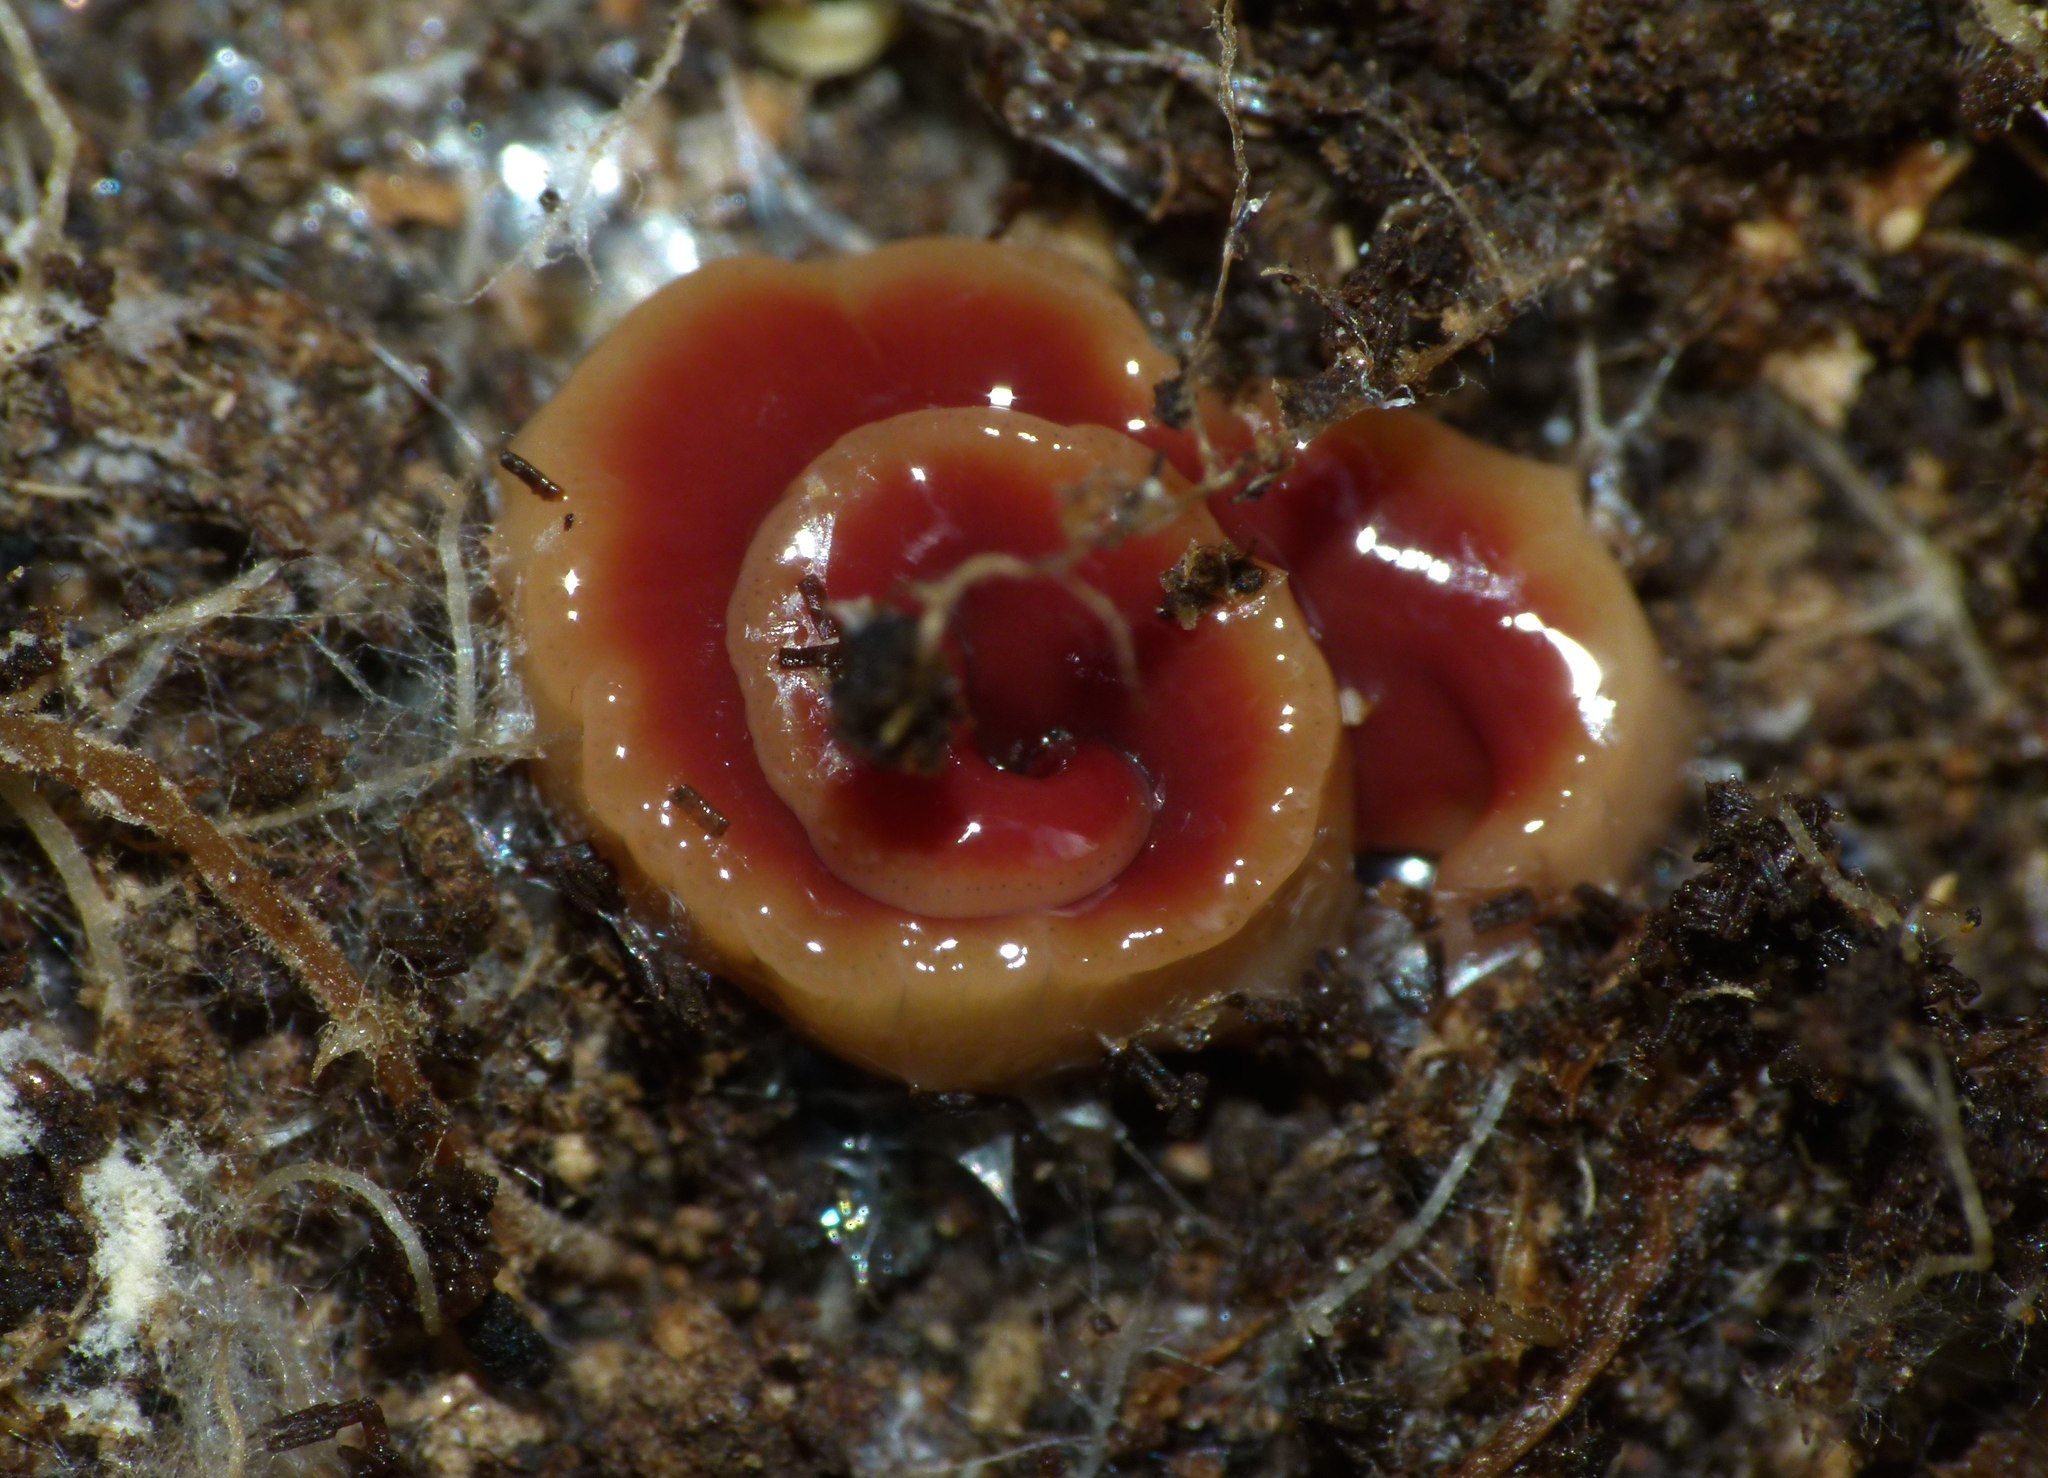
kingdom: Animalia
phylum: Platyhelminthes
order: Tricladida
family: Geoplanidae
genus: Arthurdendyus
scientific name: Arthurdendyus testaceus
